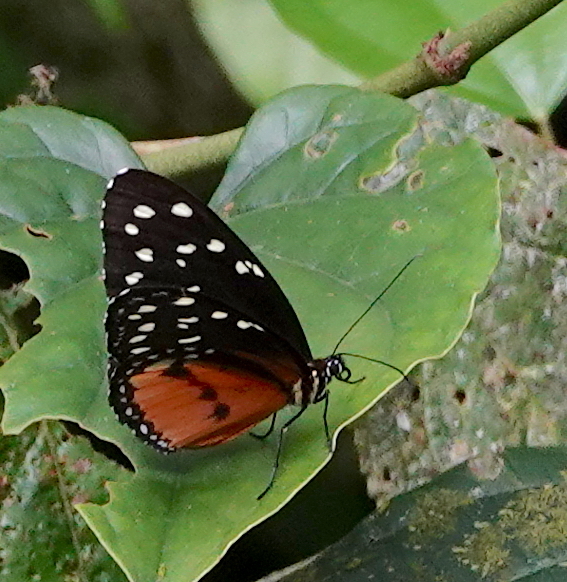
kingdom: Animalia
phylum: Arthropoda
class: Insecta
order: Lepidoptera
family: Nymphalidae
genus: Tithorea
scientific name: Tithorea tarricina
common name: Cream-spotted tigerwing
